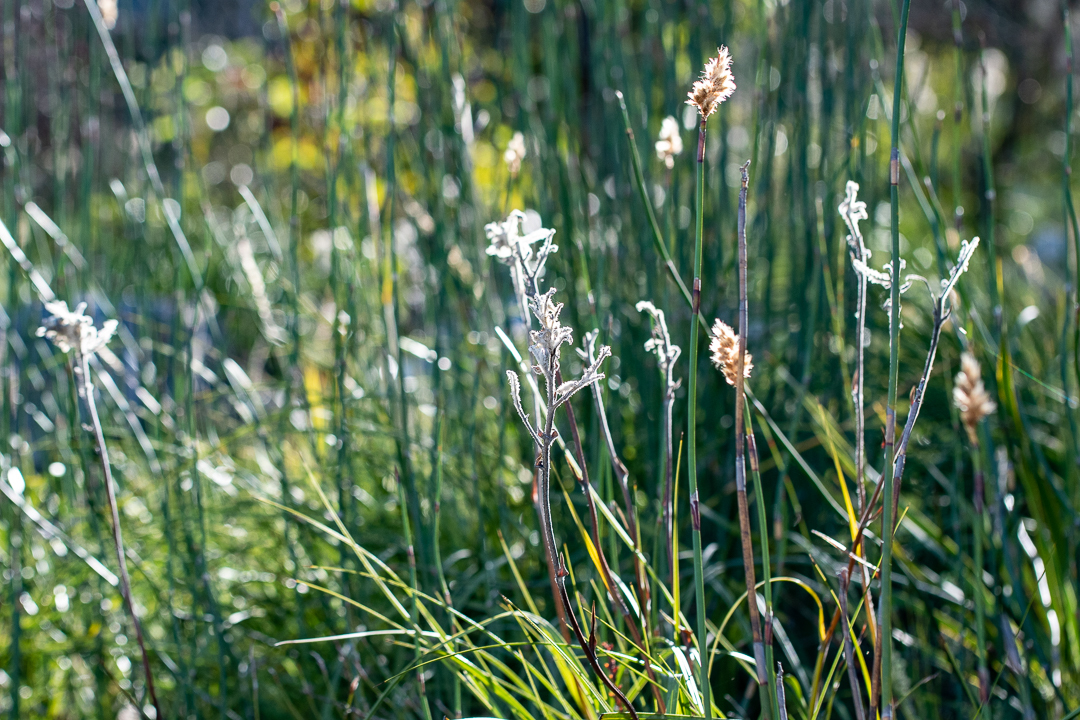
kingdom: Plantae
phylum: Tracheophyta
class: Liliopsida
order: Asparagales
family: Lanariaceae
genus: Lanaria
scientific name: Lanaria lanata
